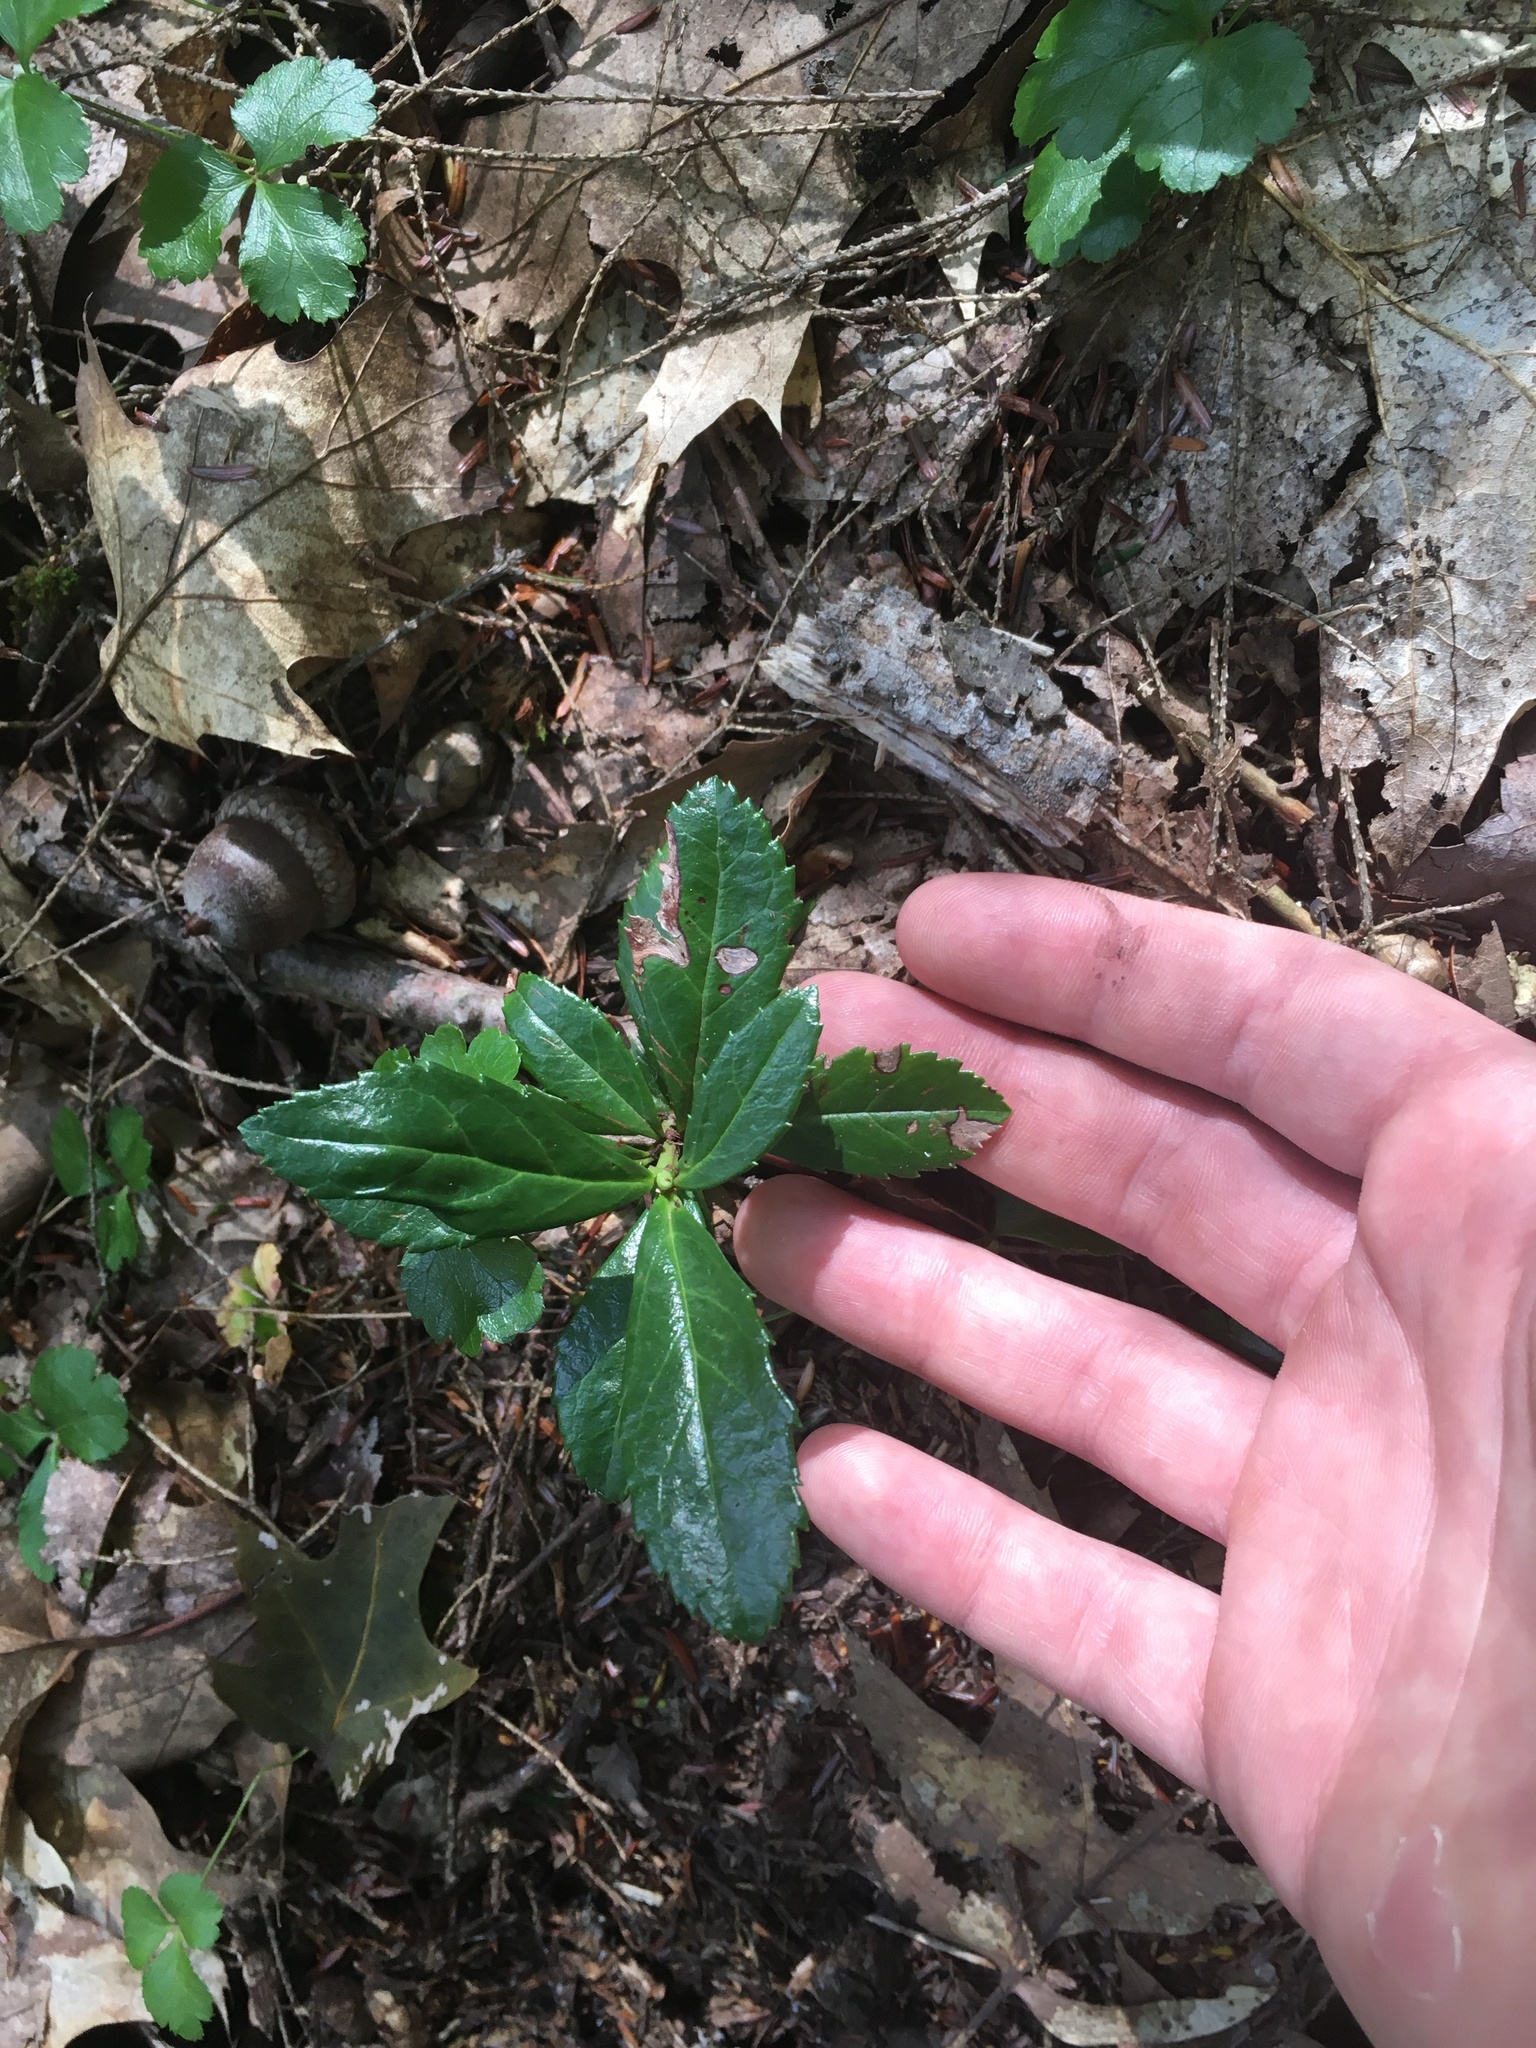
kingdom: Plantae
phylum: Tracheophyta
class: Magnoliopsida
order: Ericales
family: Ericaceae
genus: Chimaphila
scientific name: Chimaphila umbellata
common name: Pipsissewa
